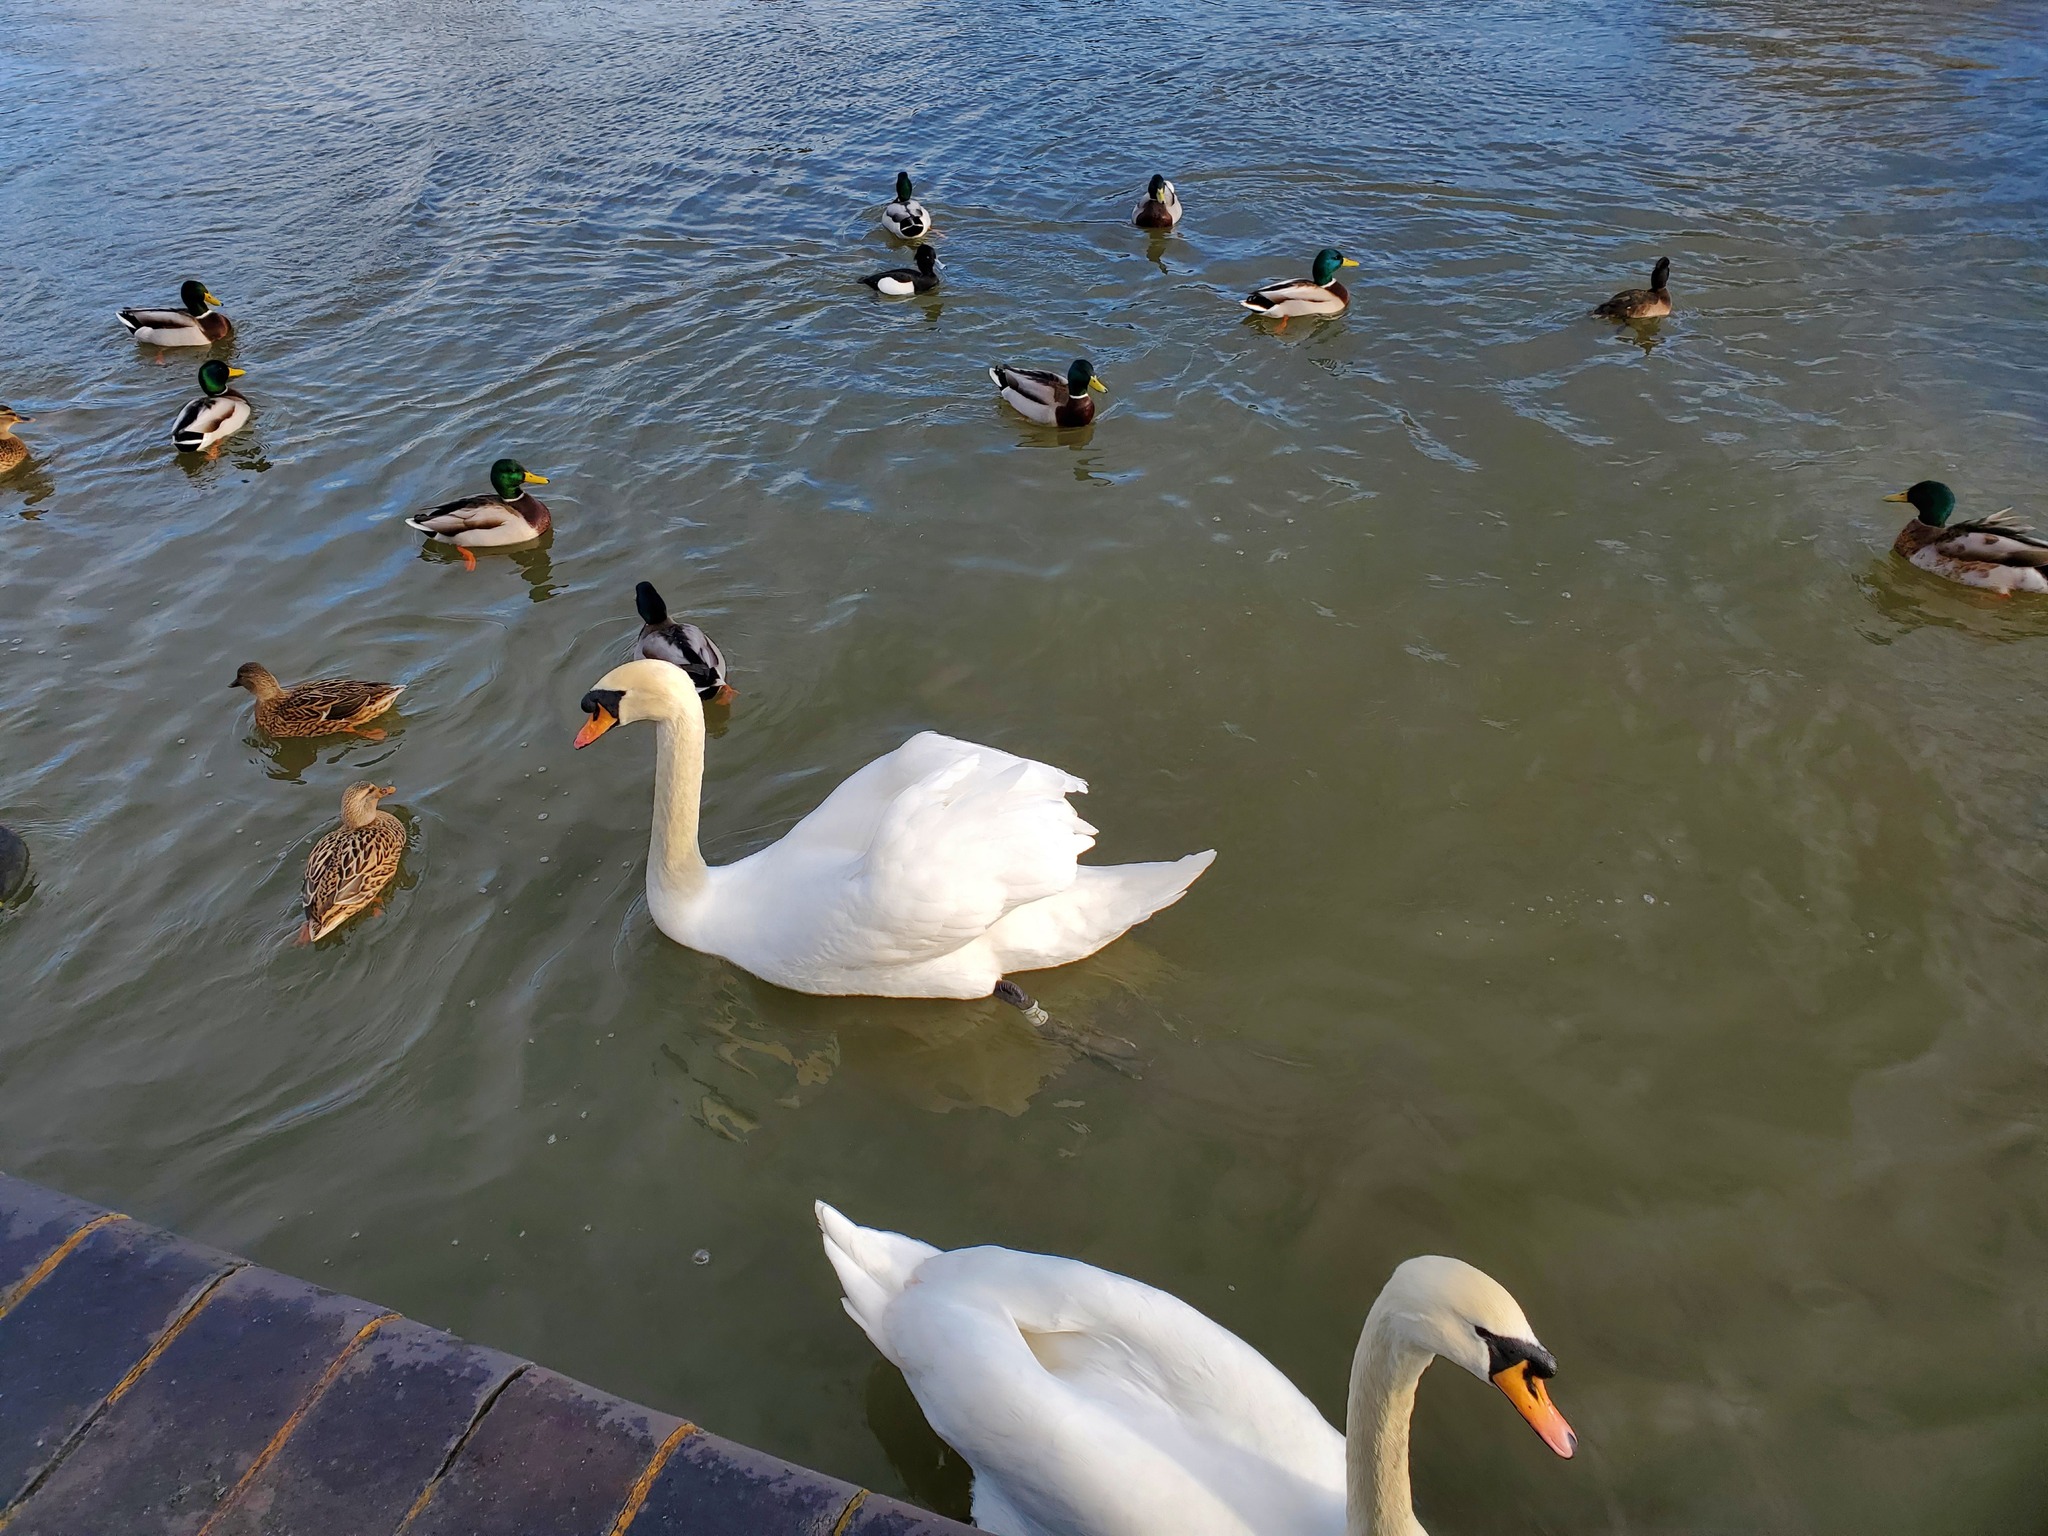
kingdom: Animalia
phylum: Chordata
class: Aves
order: Anseriformes
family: Anatidae
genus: Cygnus
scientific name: Cygnus olor
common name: Mute swan
